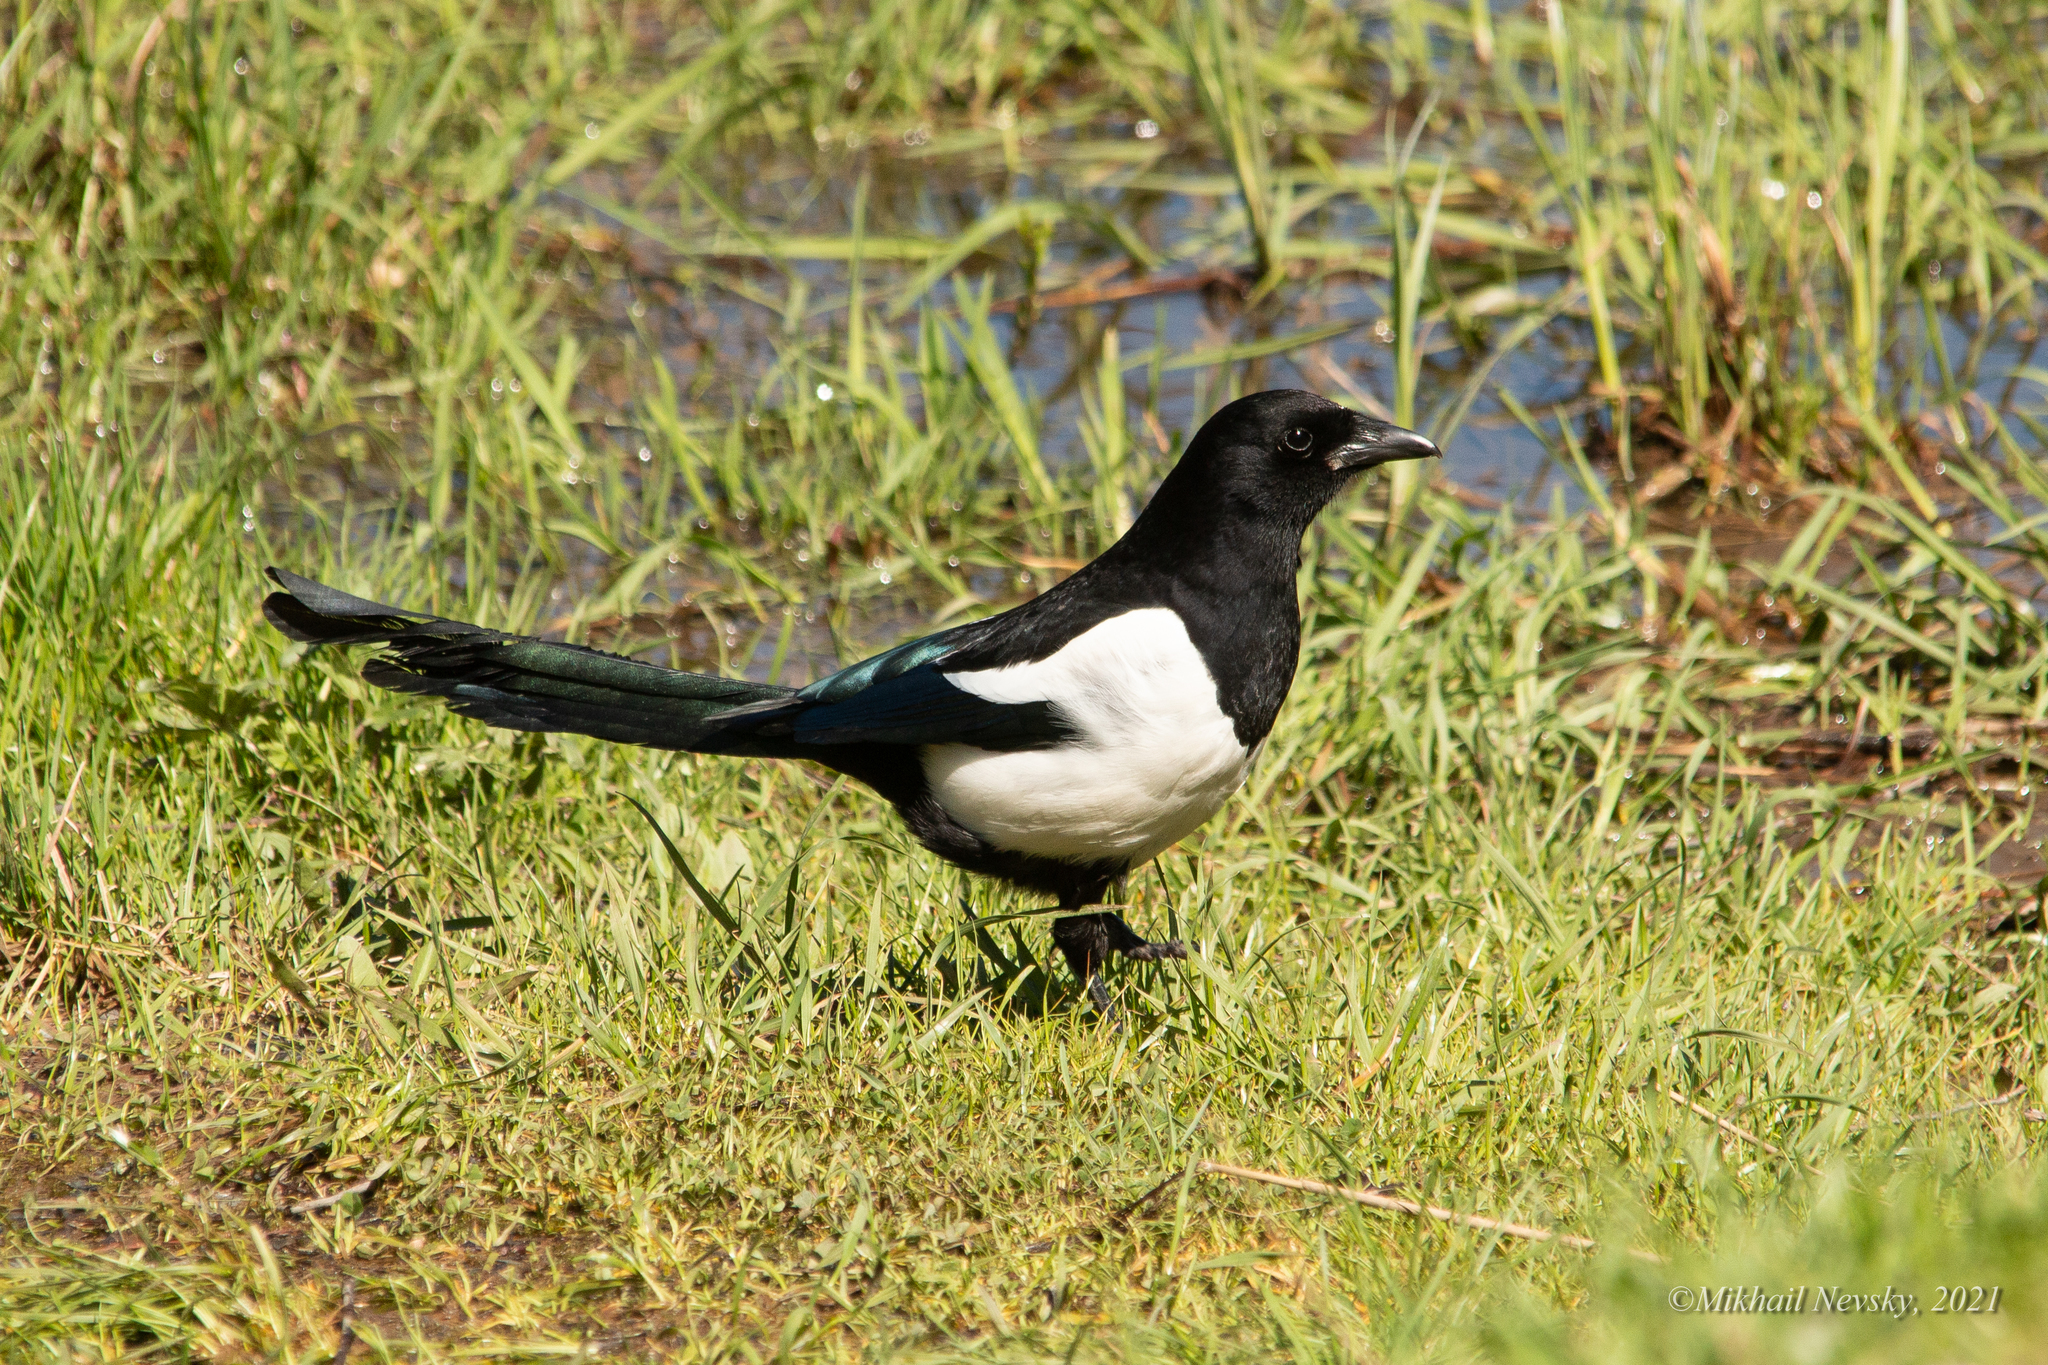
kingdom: Animalia
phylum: Chordata
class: Aves
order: Passeriformes
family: Corvidae
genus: Pica
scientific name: Pica pica
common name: Eurasian magpie
